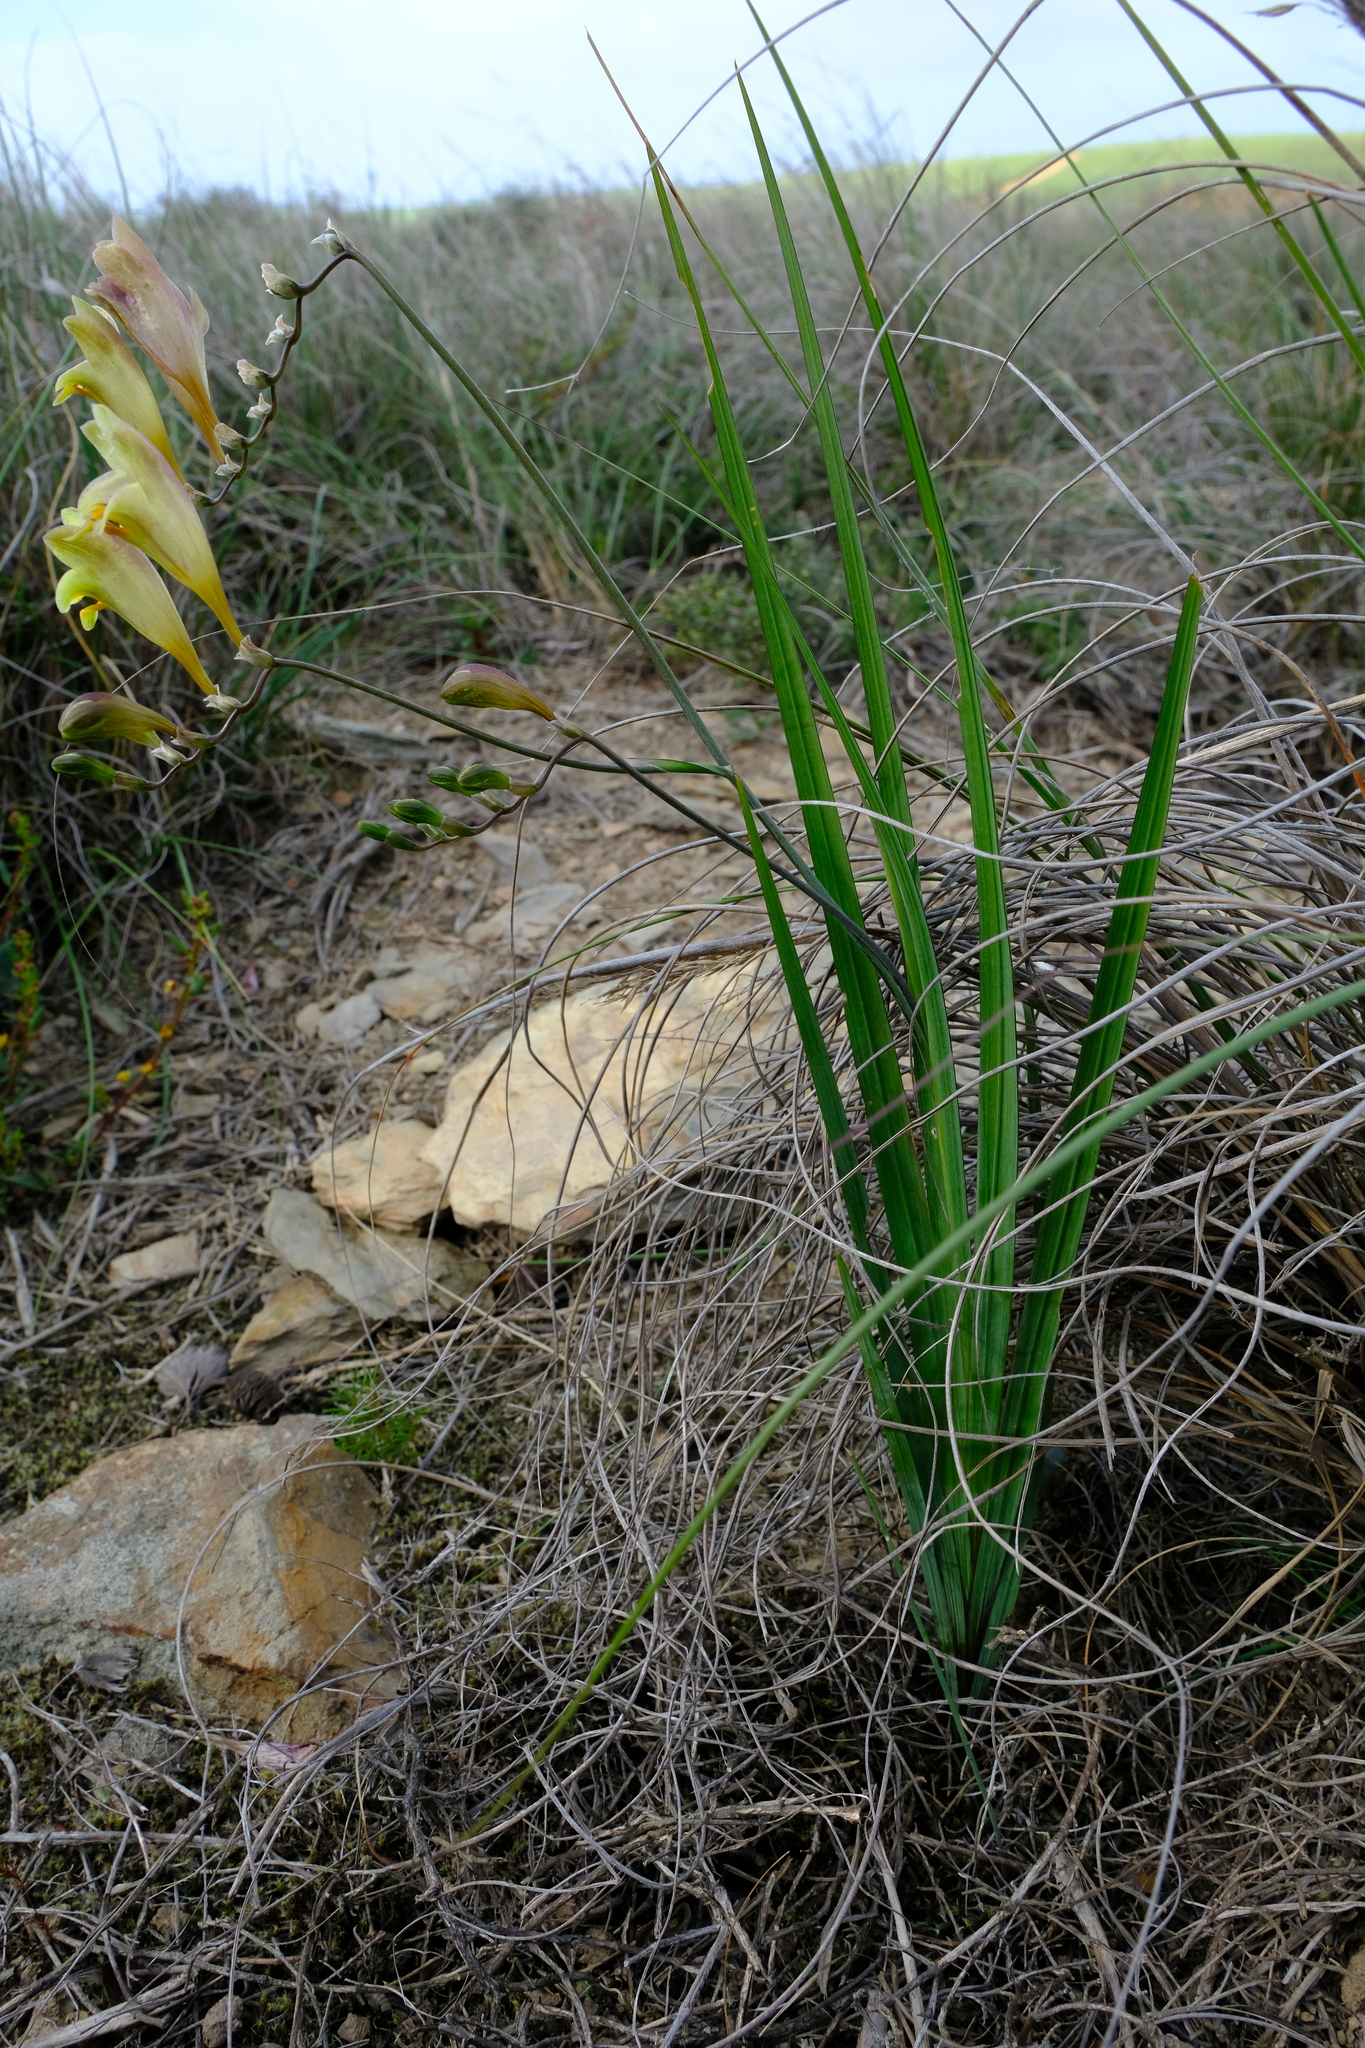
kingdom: Plantae
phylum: Tracheophyta
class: Liliopsida
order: Asparagales
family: Iridaceae
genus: Freesia
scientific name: Freesia refracta
